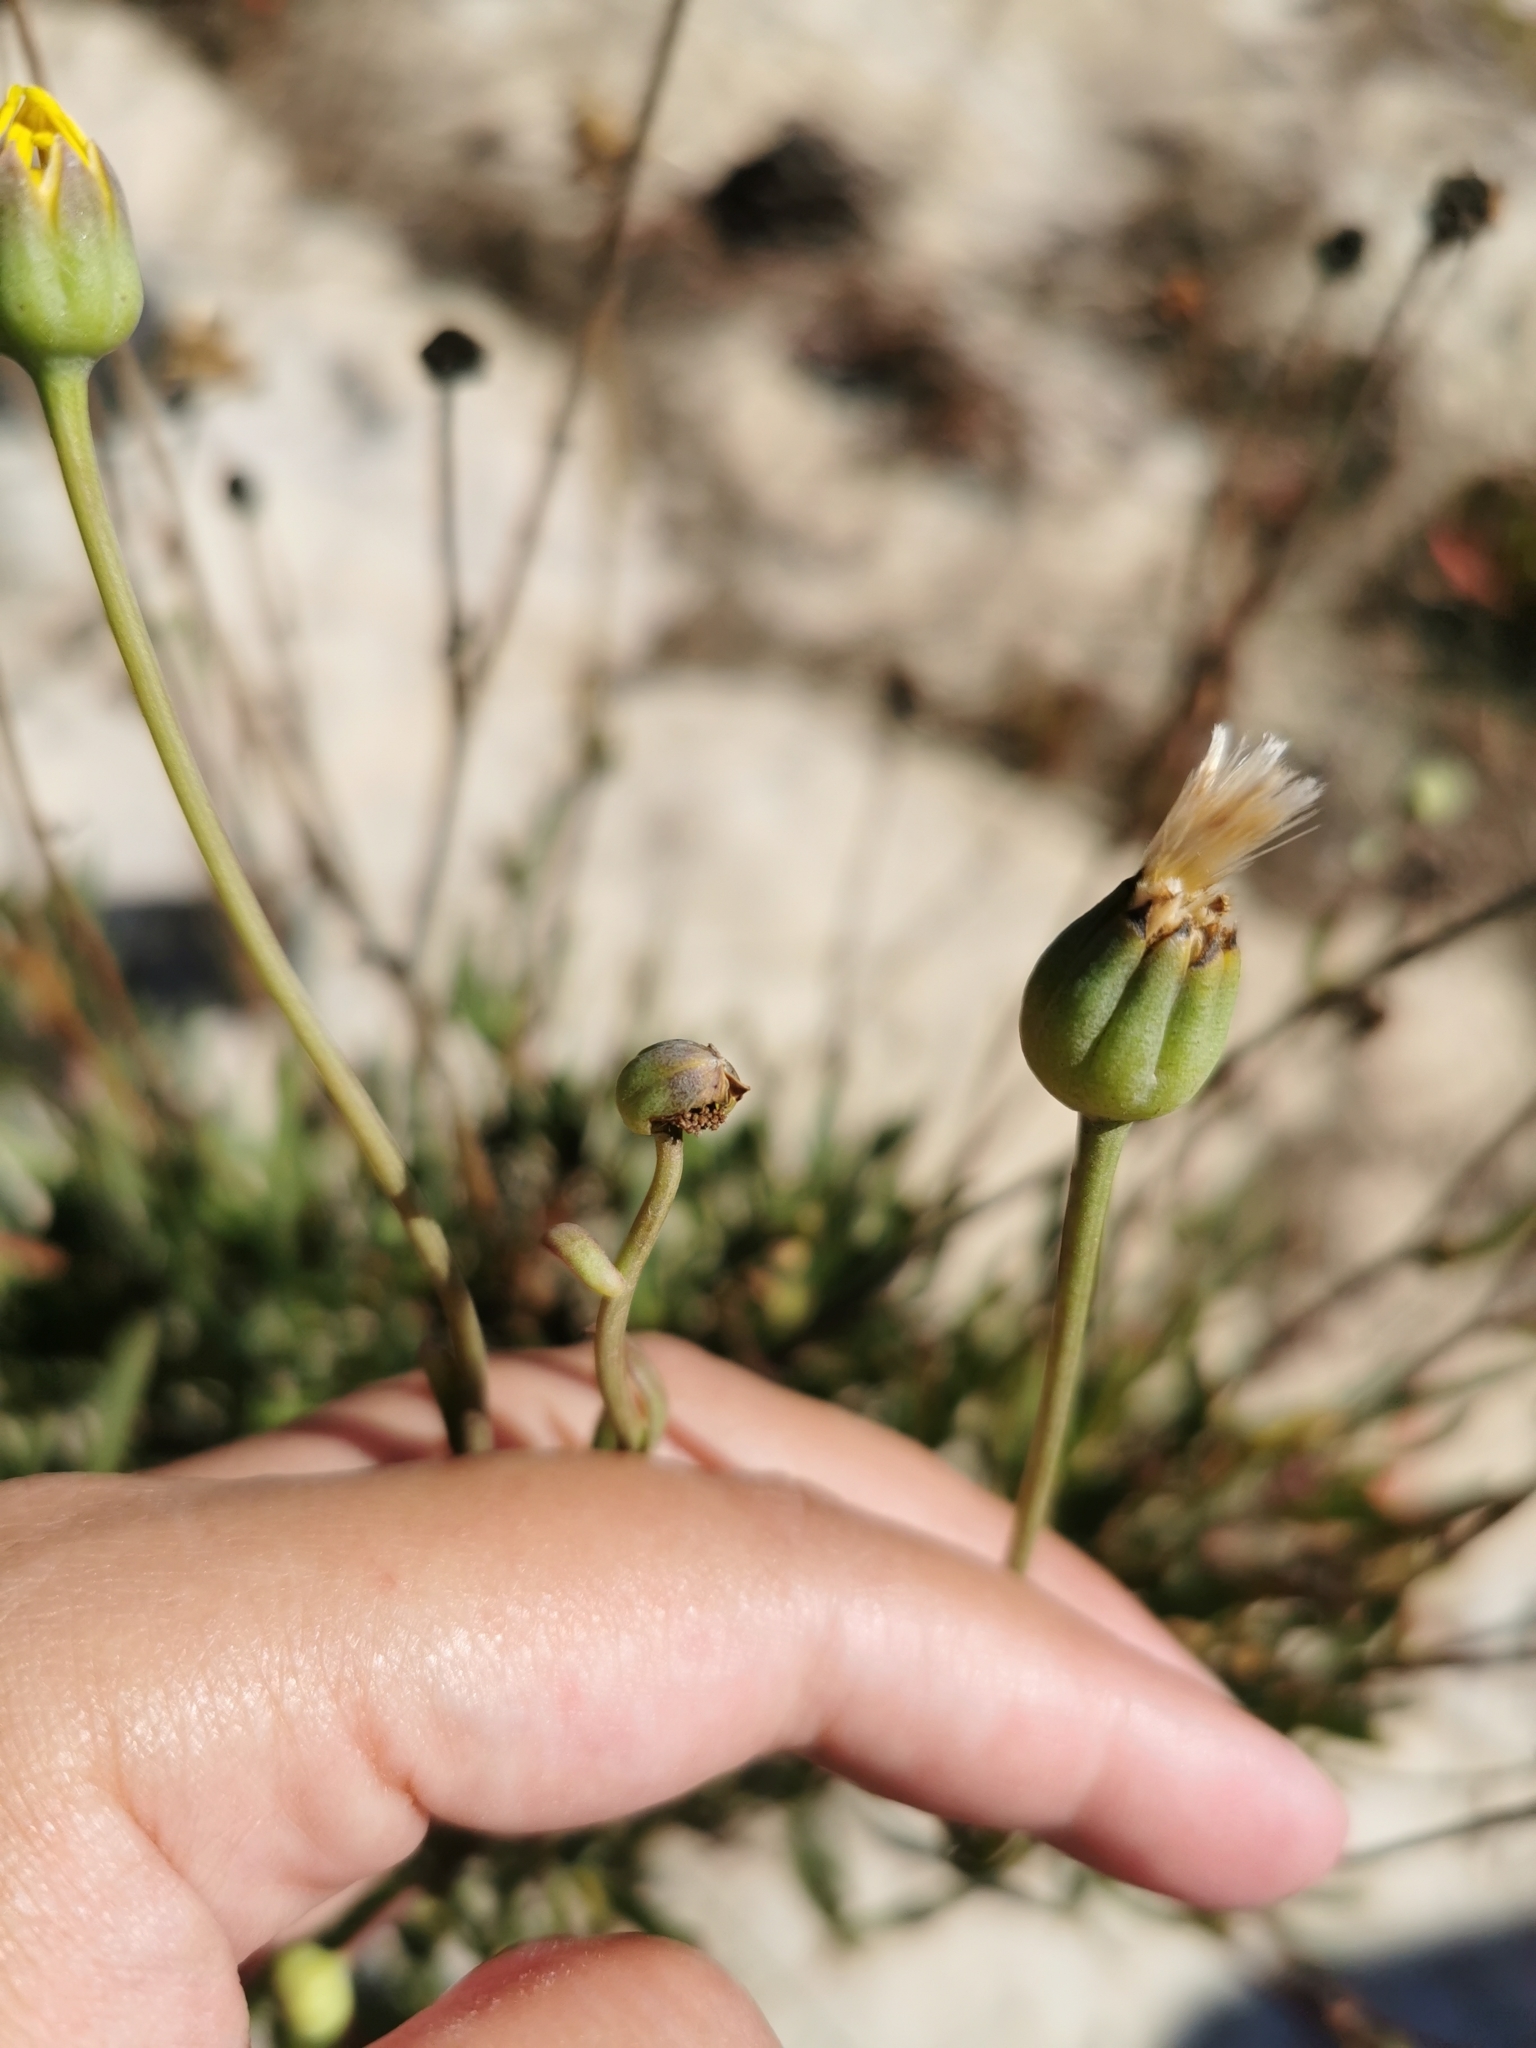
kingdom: Plantae
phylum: Tracheophyta
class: Magnoliopsida
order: Asterales
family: Asteraceae
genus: Othonna
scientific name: Othonna coronopifolia
